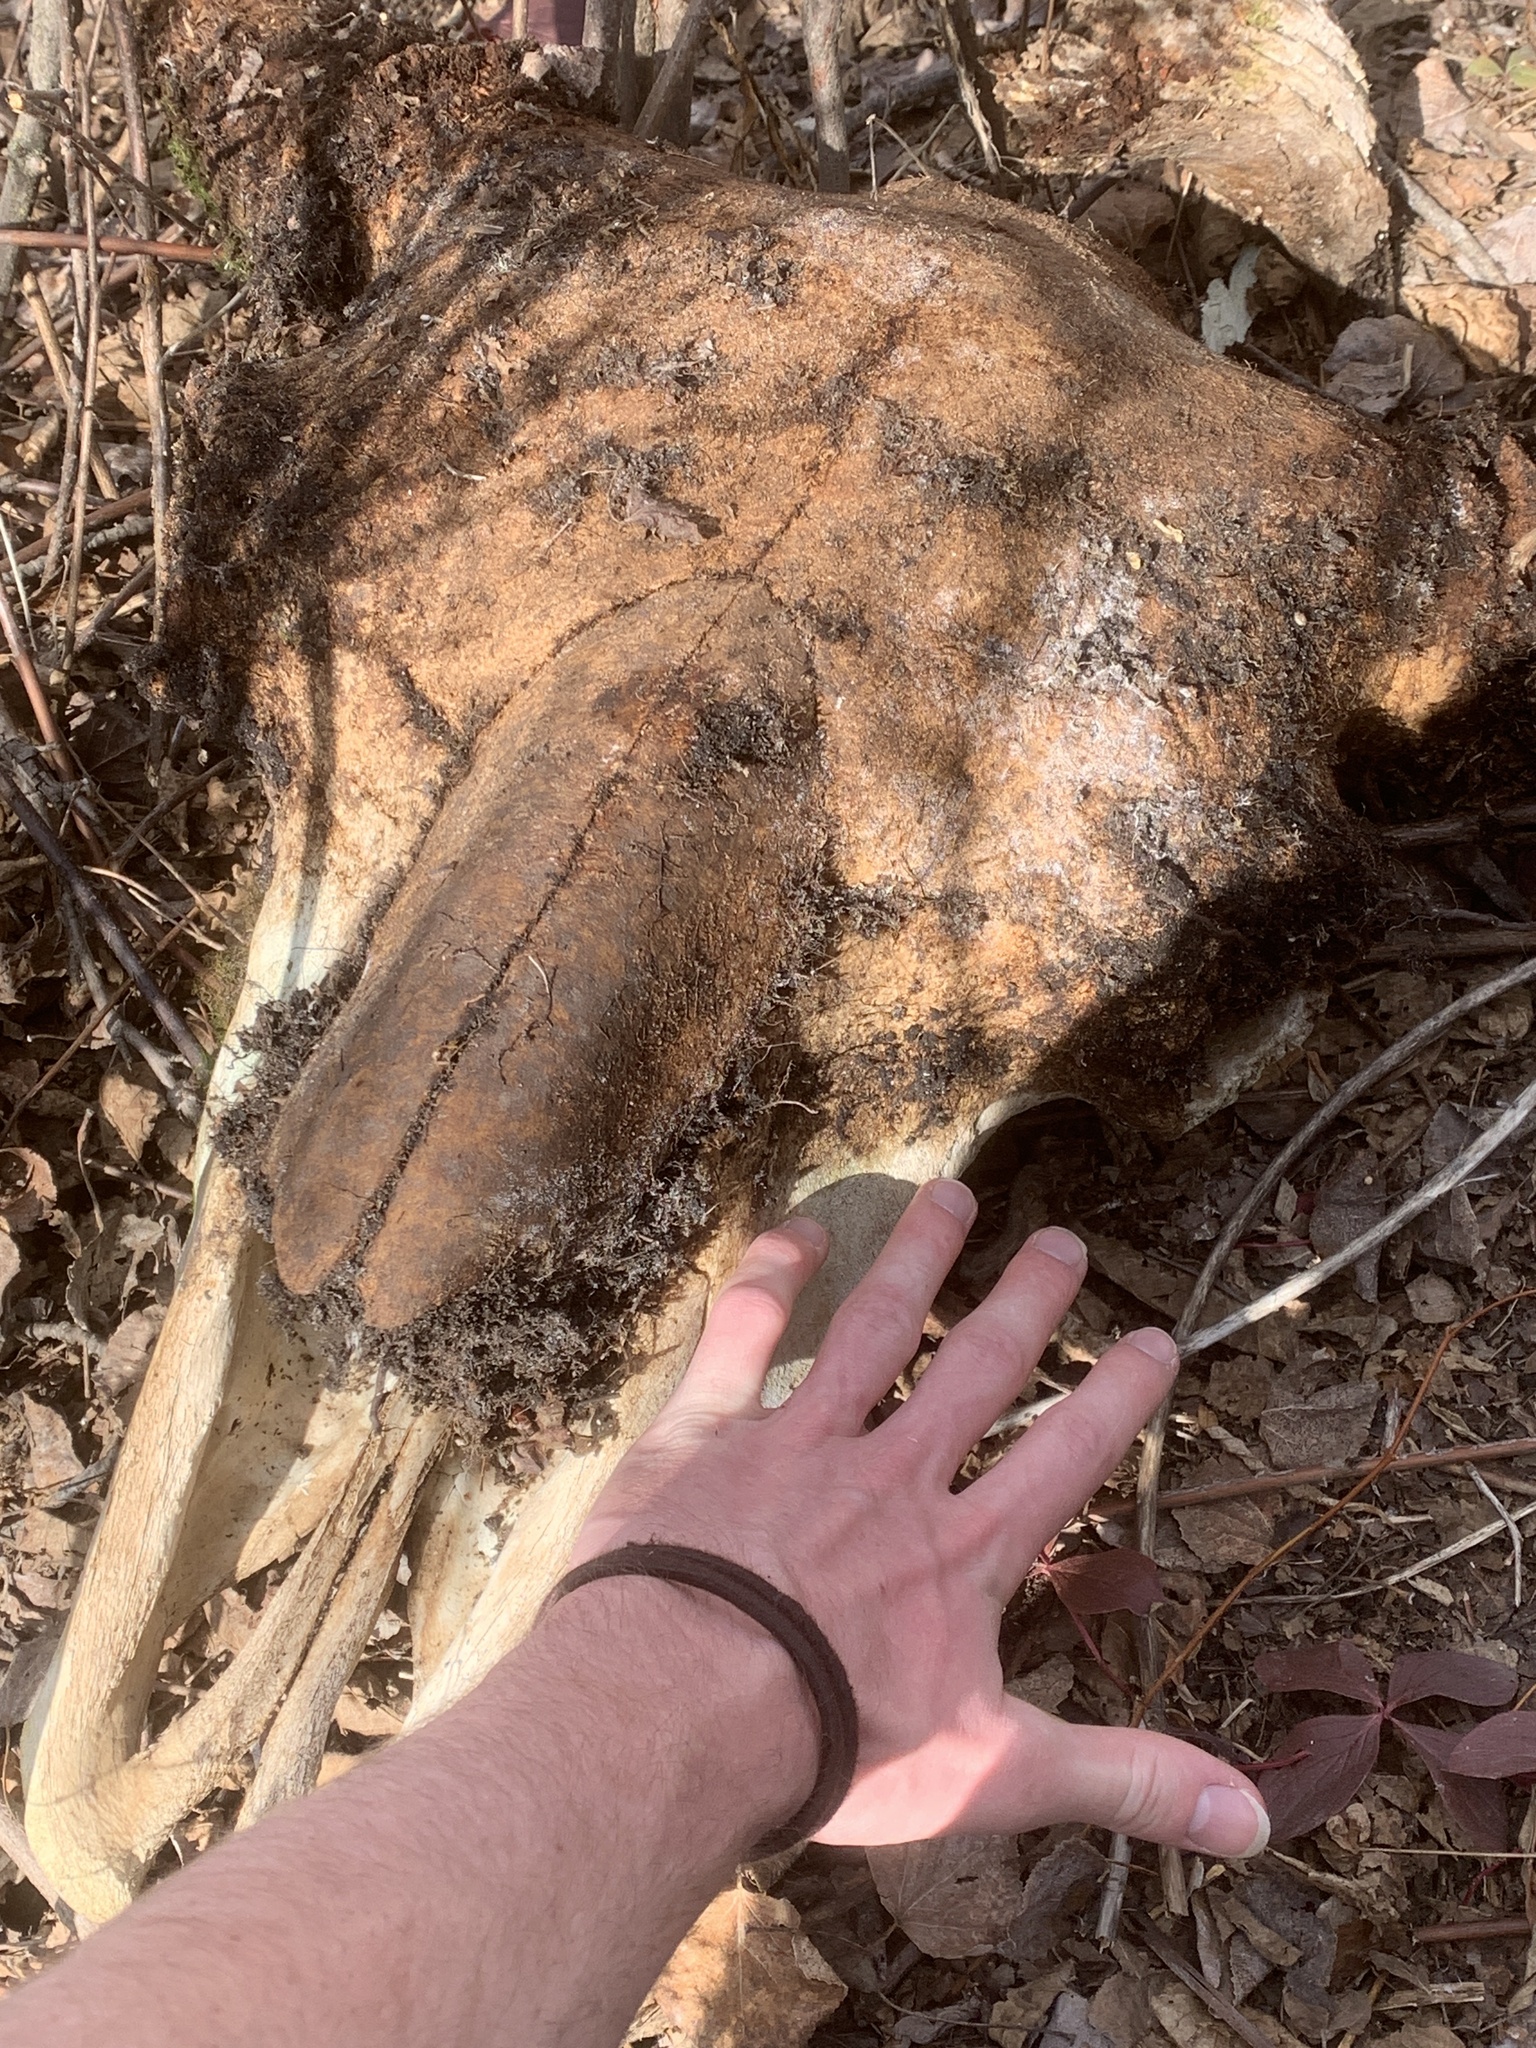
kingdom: Animalia
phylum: Chordata
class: Mammalia
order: Artiodactyla
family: Bovidae
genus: Bison
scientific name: Bison bison
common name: American bison
